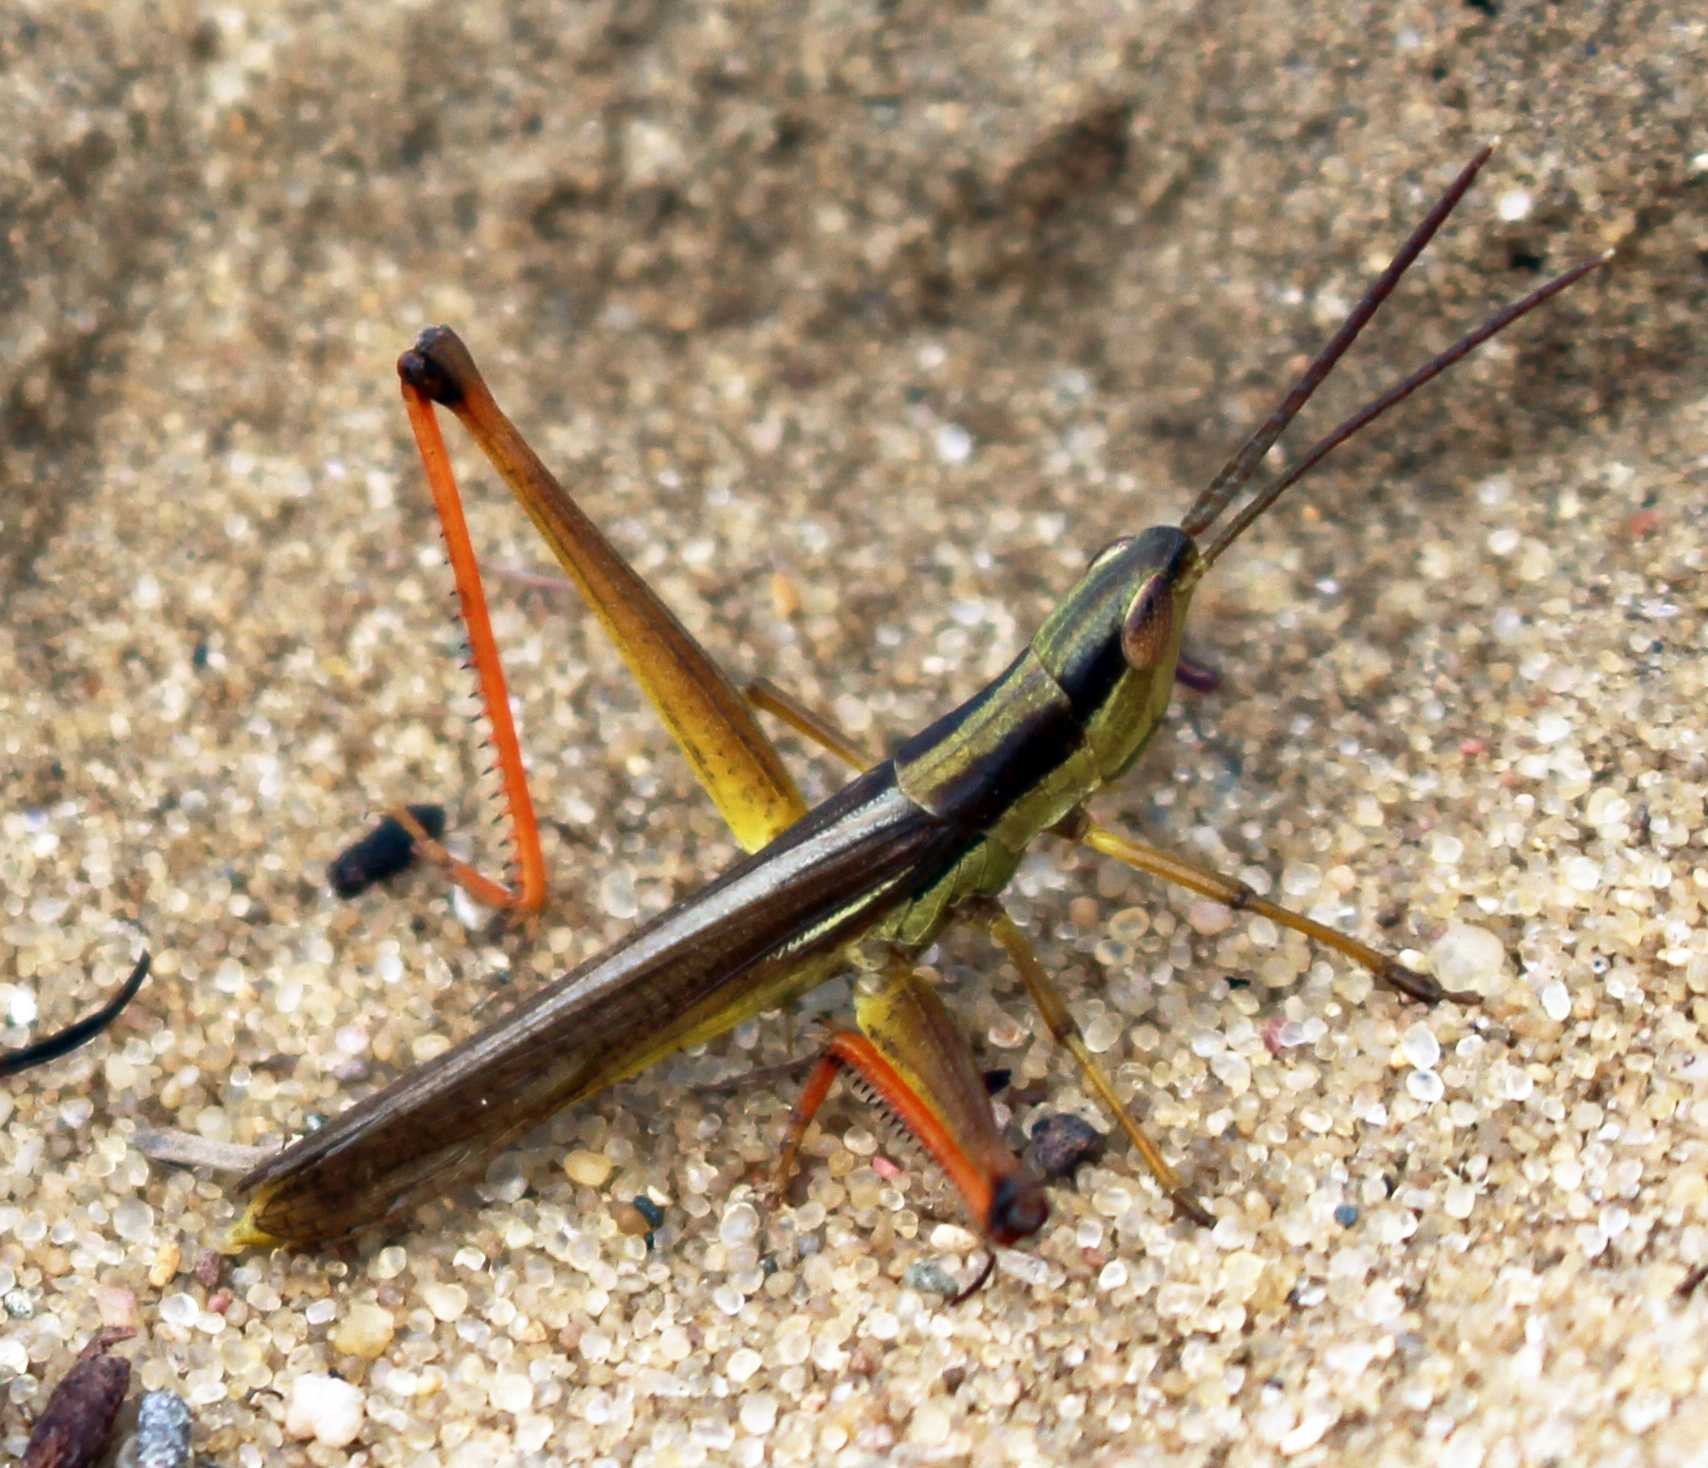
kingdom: Animalia
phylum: Arthropoda
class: Insecta
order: Orthoptera
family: Acrididae
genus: Mermiria
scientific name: Mermiria bivittata
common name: Two-striped mermiria grasshopper
